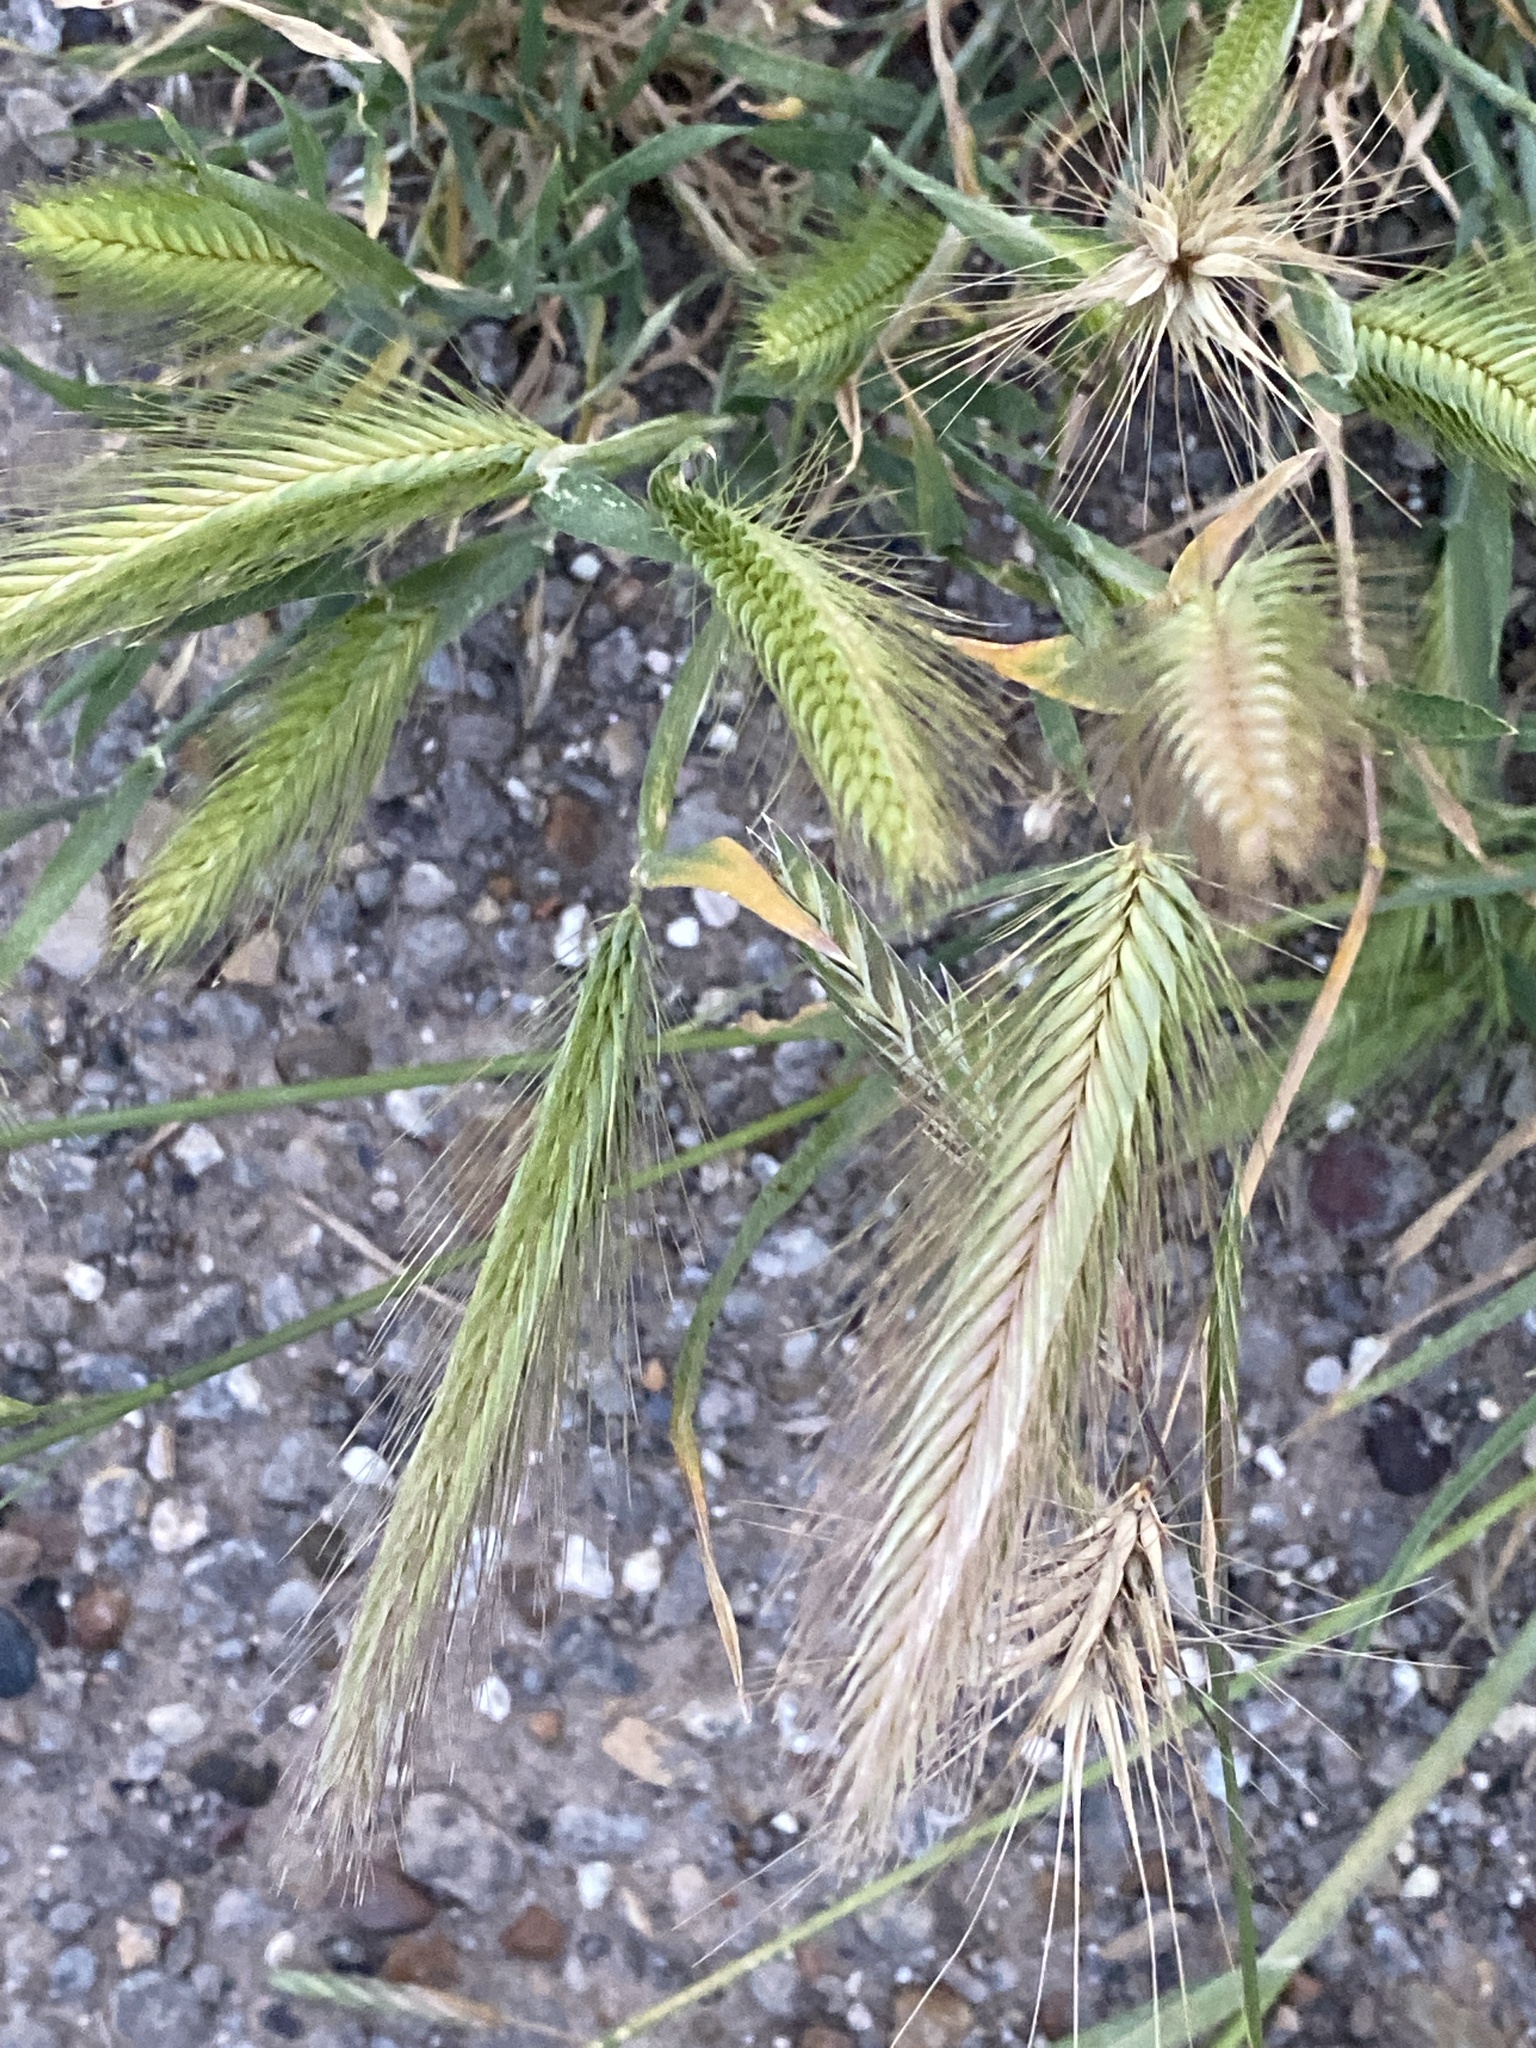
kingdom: Plantae
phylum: Tracheophyta
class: Liliopsida
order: Poales
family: Poaceae
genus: Hordeum
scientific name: Hordeum murinum
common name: Wall barley
